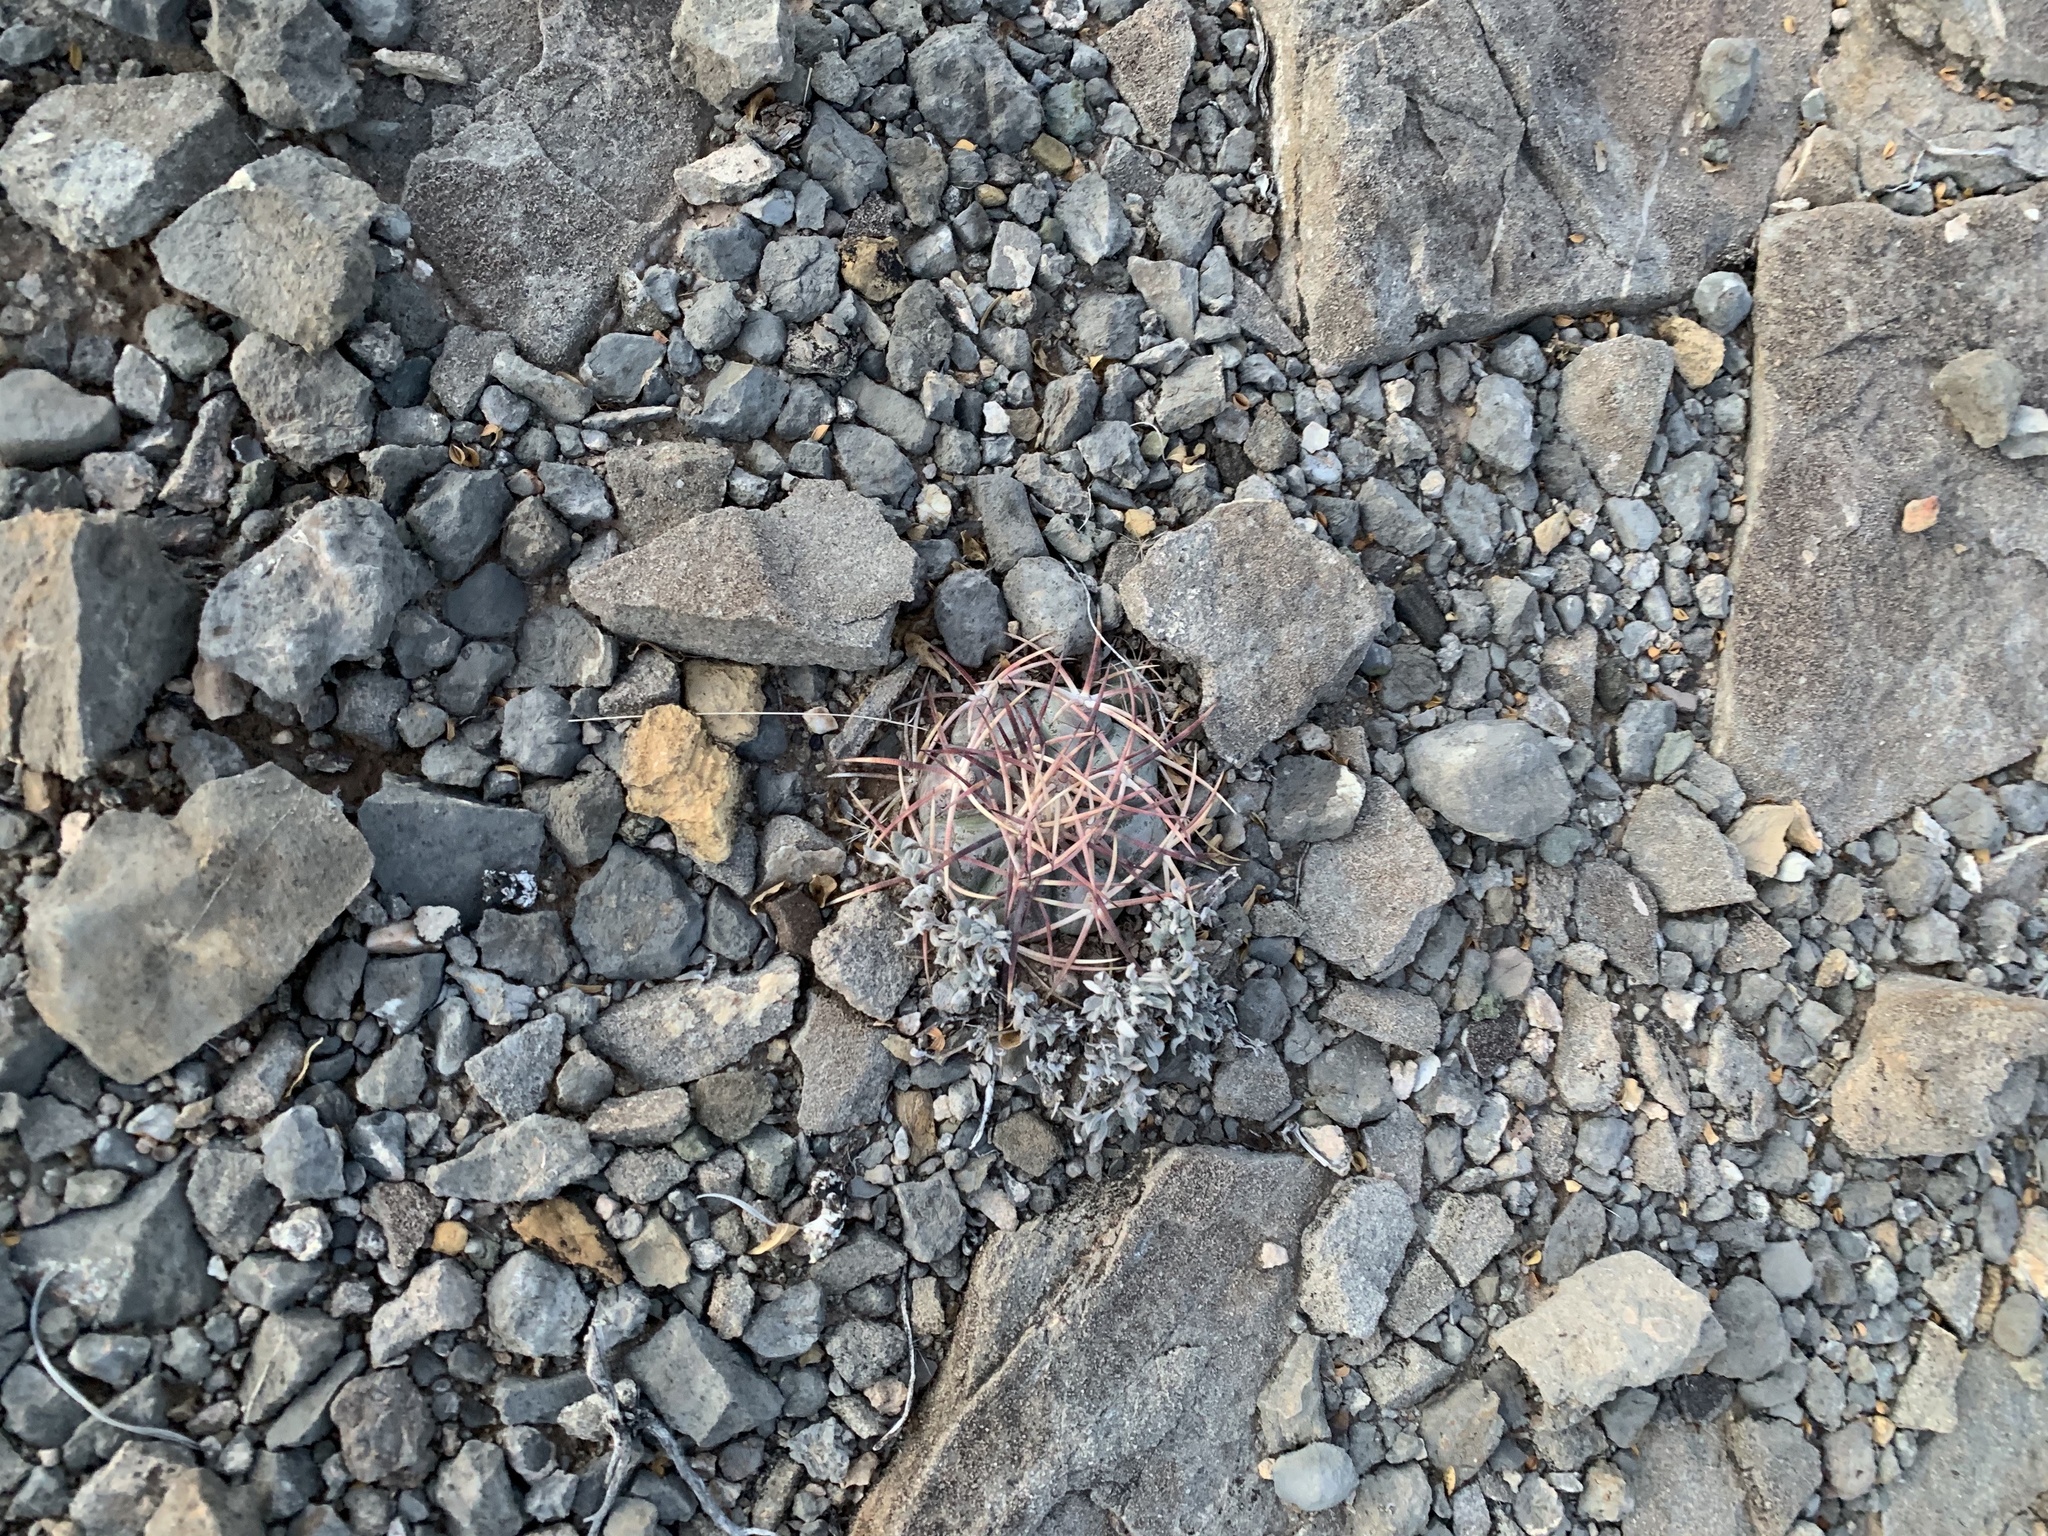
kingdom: Plantae
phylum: Tracheophyta
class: Magnoliopsida
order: Caryophyllales
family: Cactaceae
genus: Echinocactus
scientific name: Echinocactus horizonthalonius
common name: Devilshead
